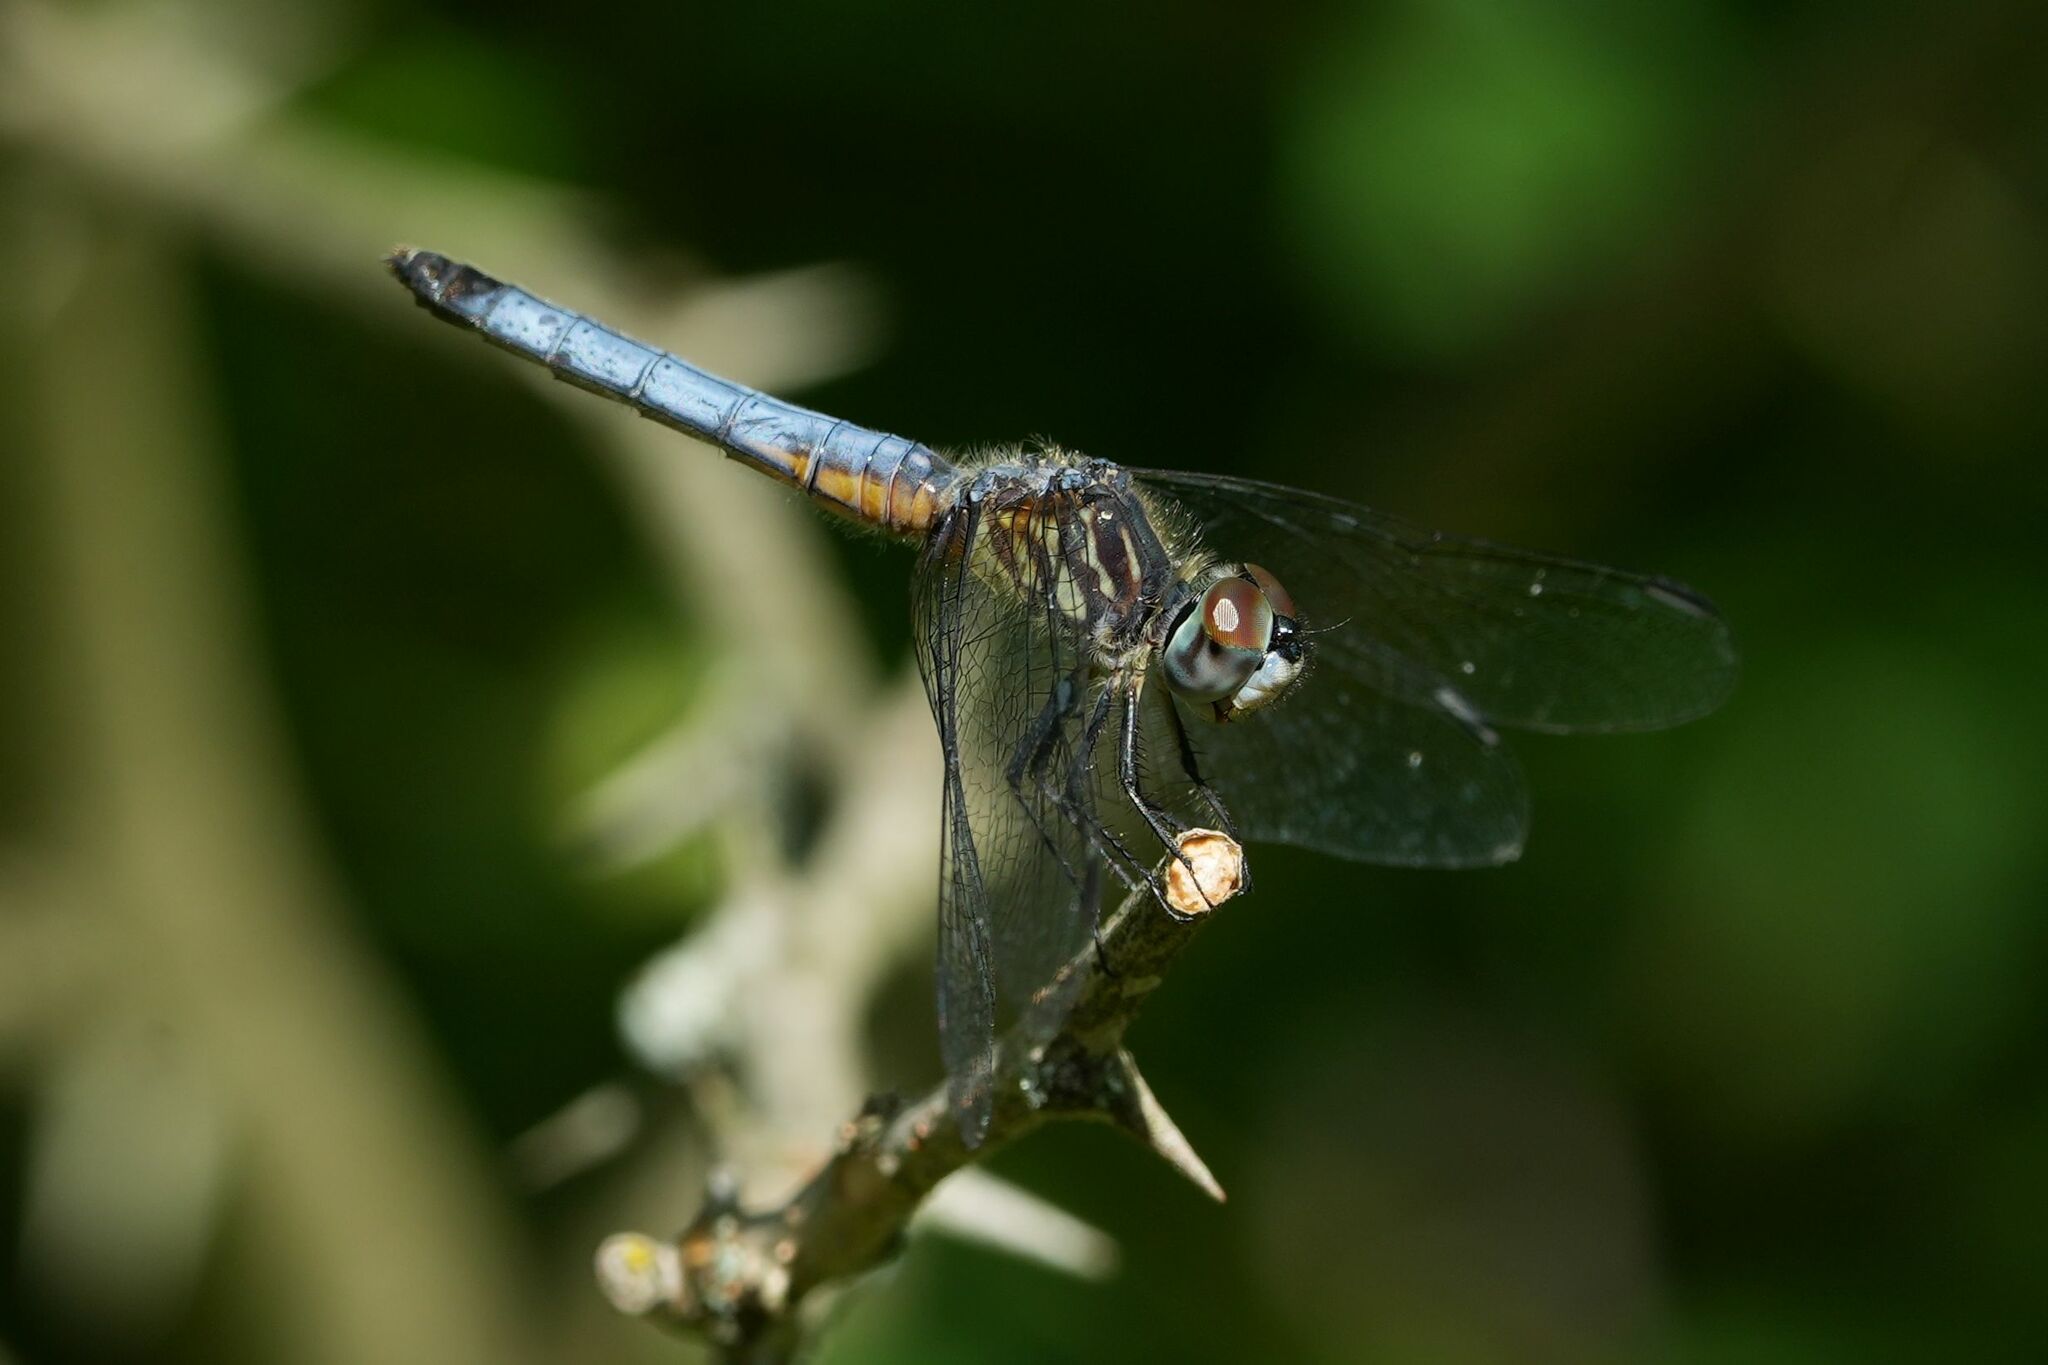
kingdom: Animalia
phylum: Arthropoda
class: Insecta
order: Odonata
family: Libellulidae
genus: Pachydiplax
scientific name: Pachydiplax longipennis
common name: Blue dasher
